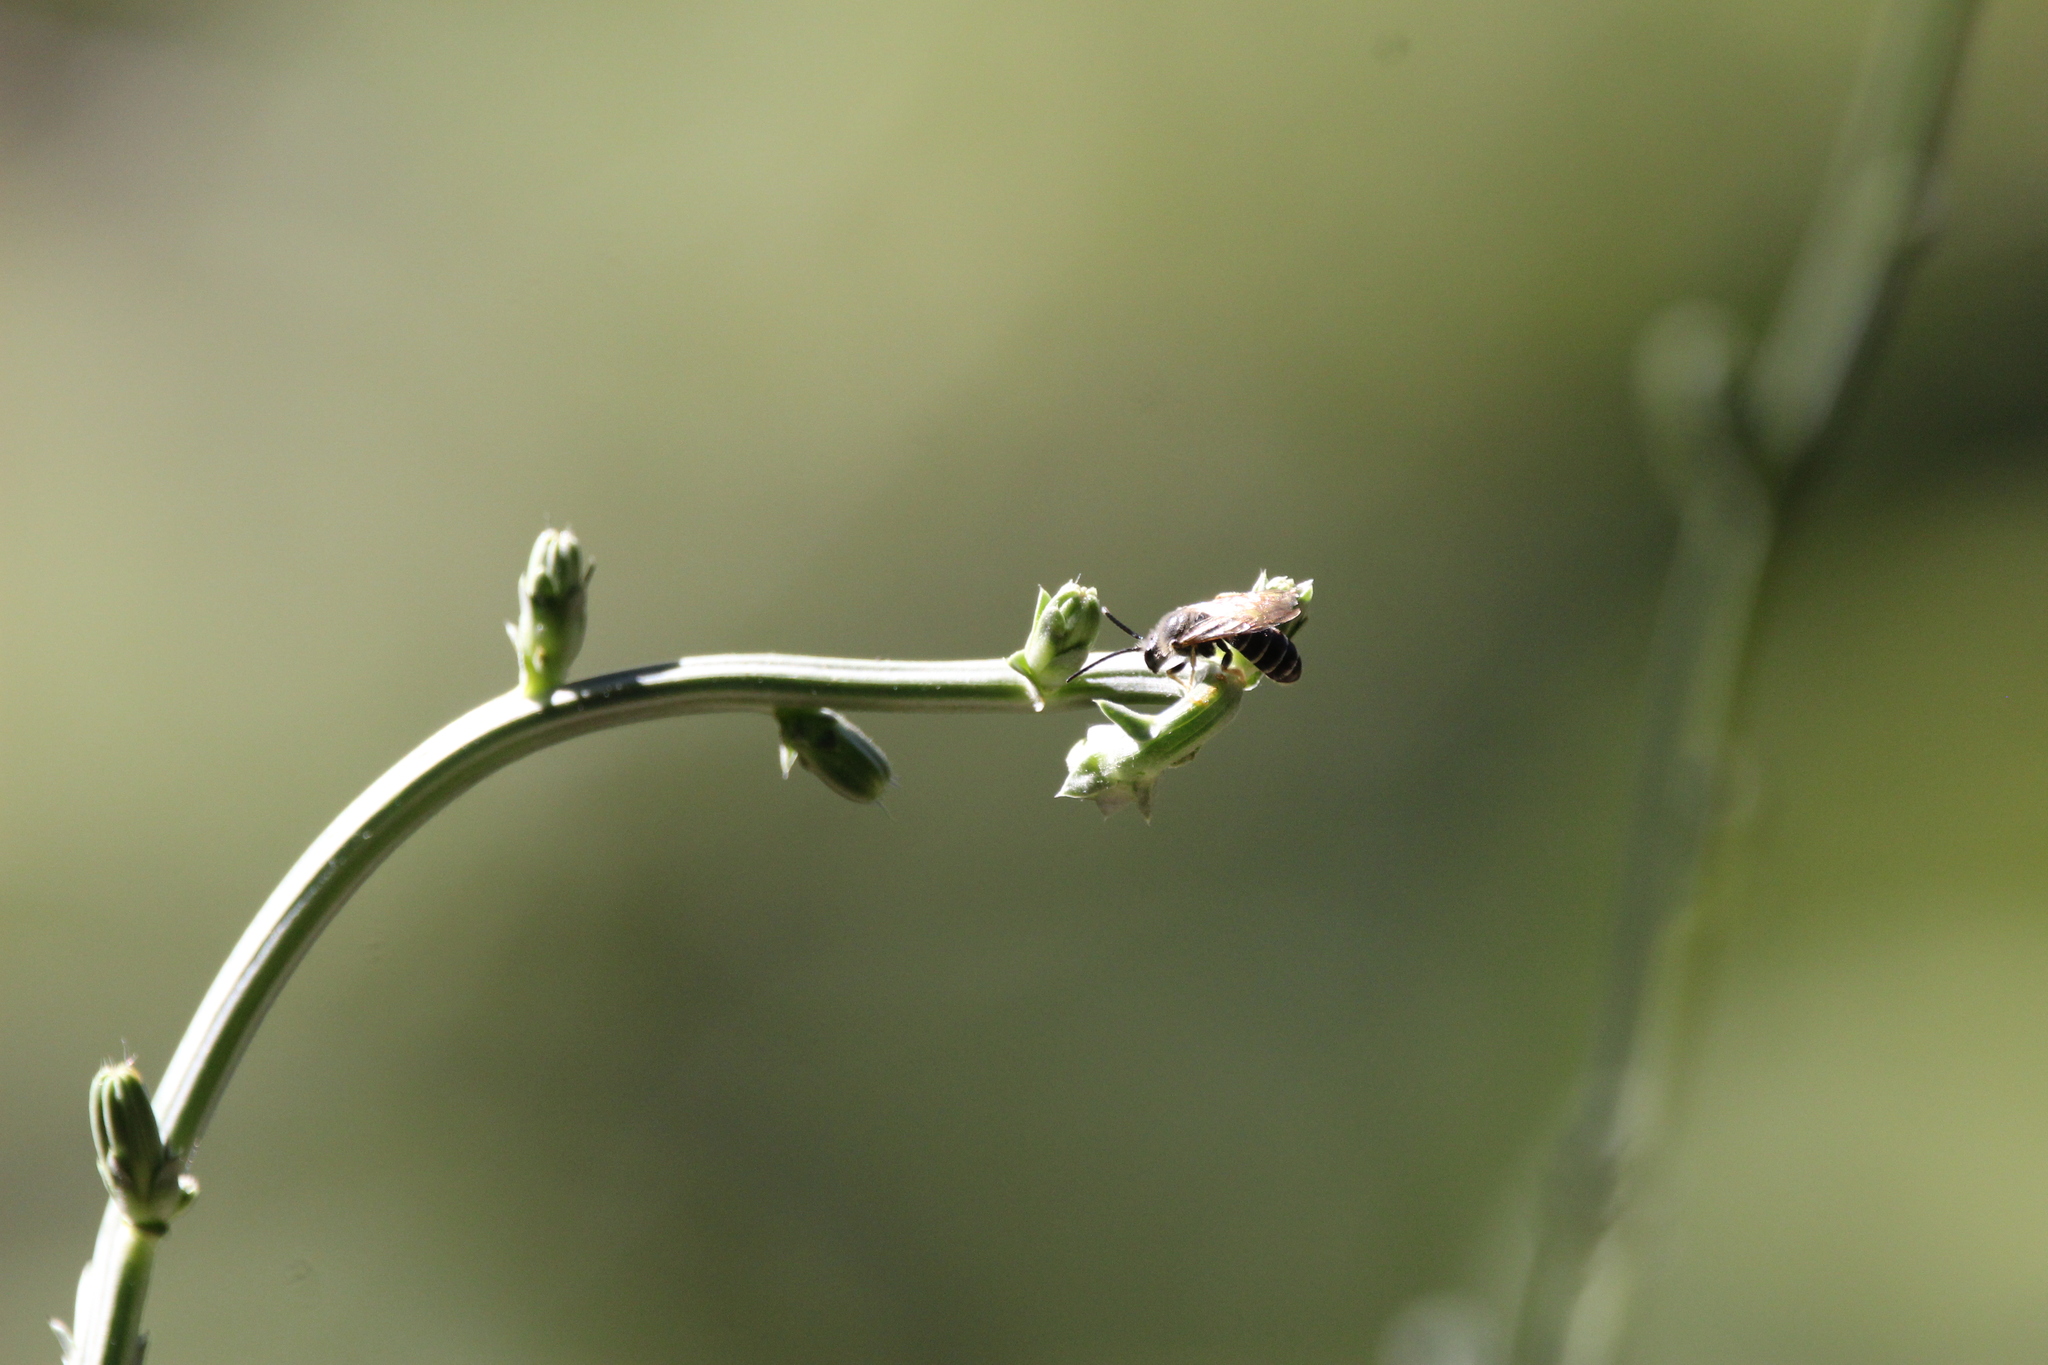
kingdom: Animalia
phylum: Arthropoda
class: Insecta
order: Hymenoptera
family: Halictidae
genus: Halictus
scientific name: Halictus rubicundus
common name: Orange-legged furrow bee
